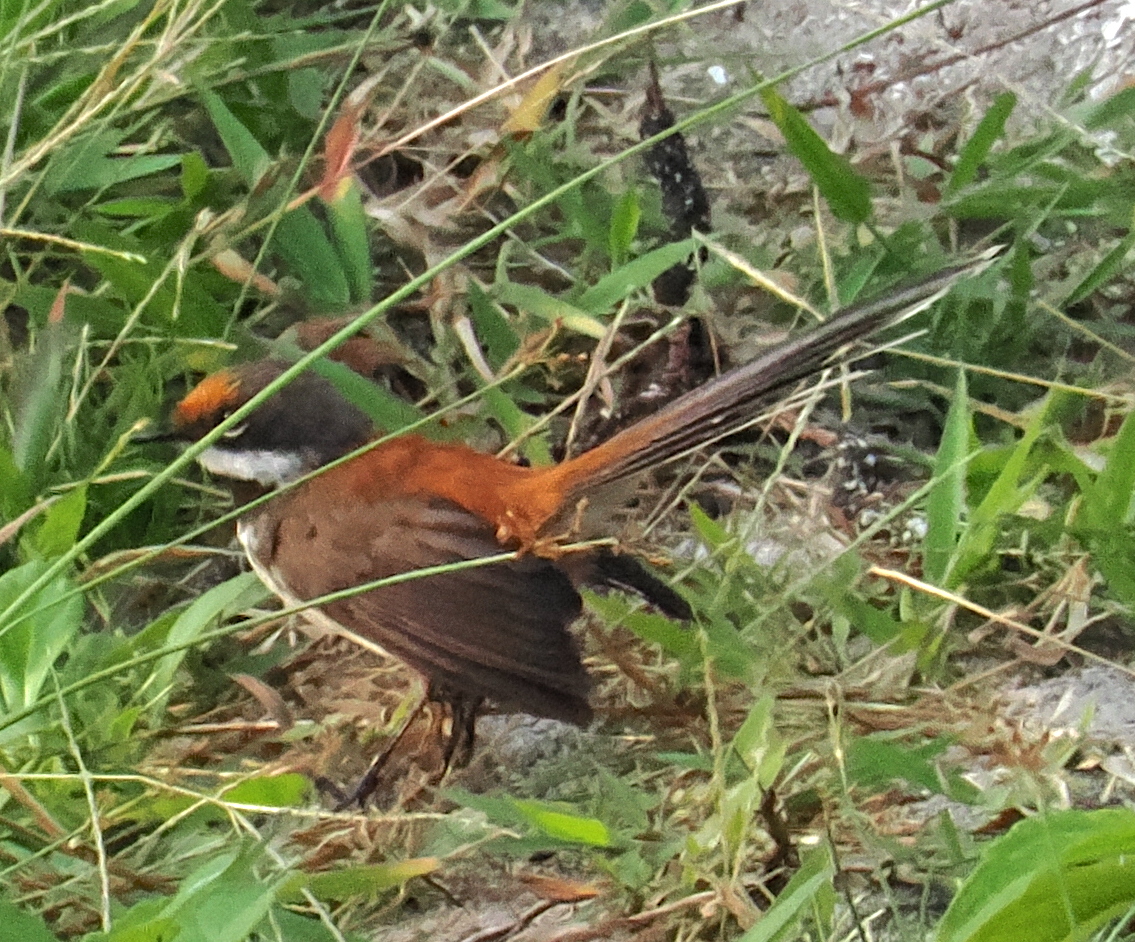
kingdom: Animalia
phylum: Chordata
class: Aves
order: Passeriformes
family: Rhipiduridae
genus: Rhipidura
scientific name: Rhipidura
